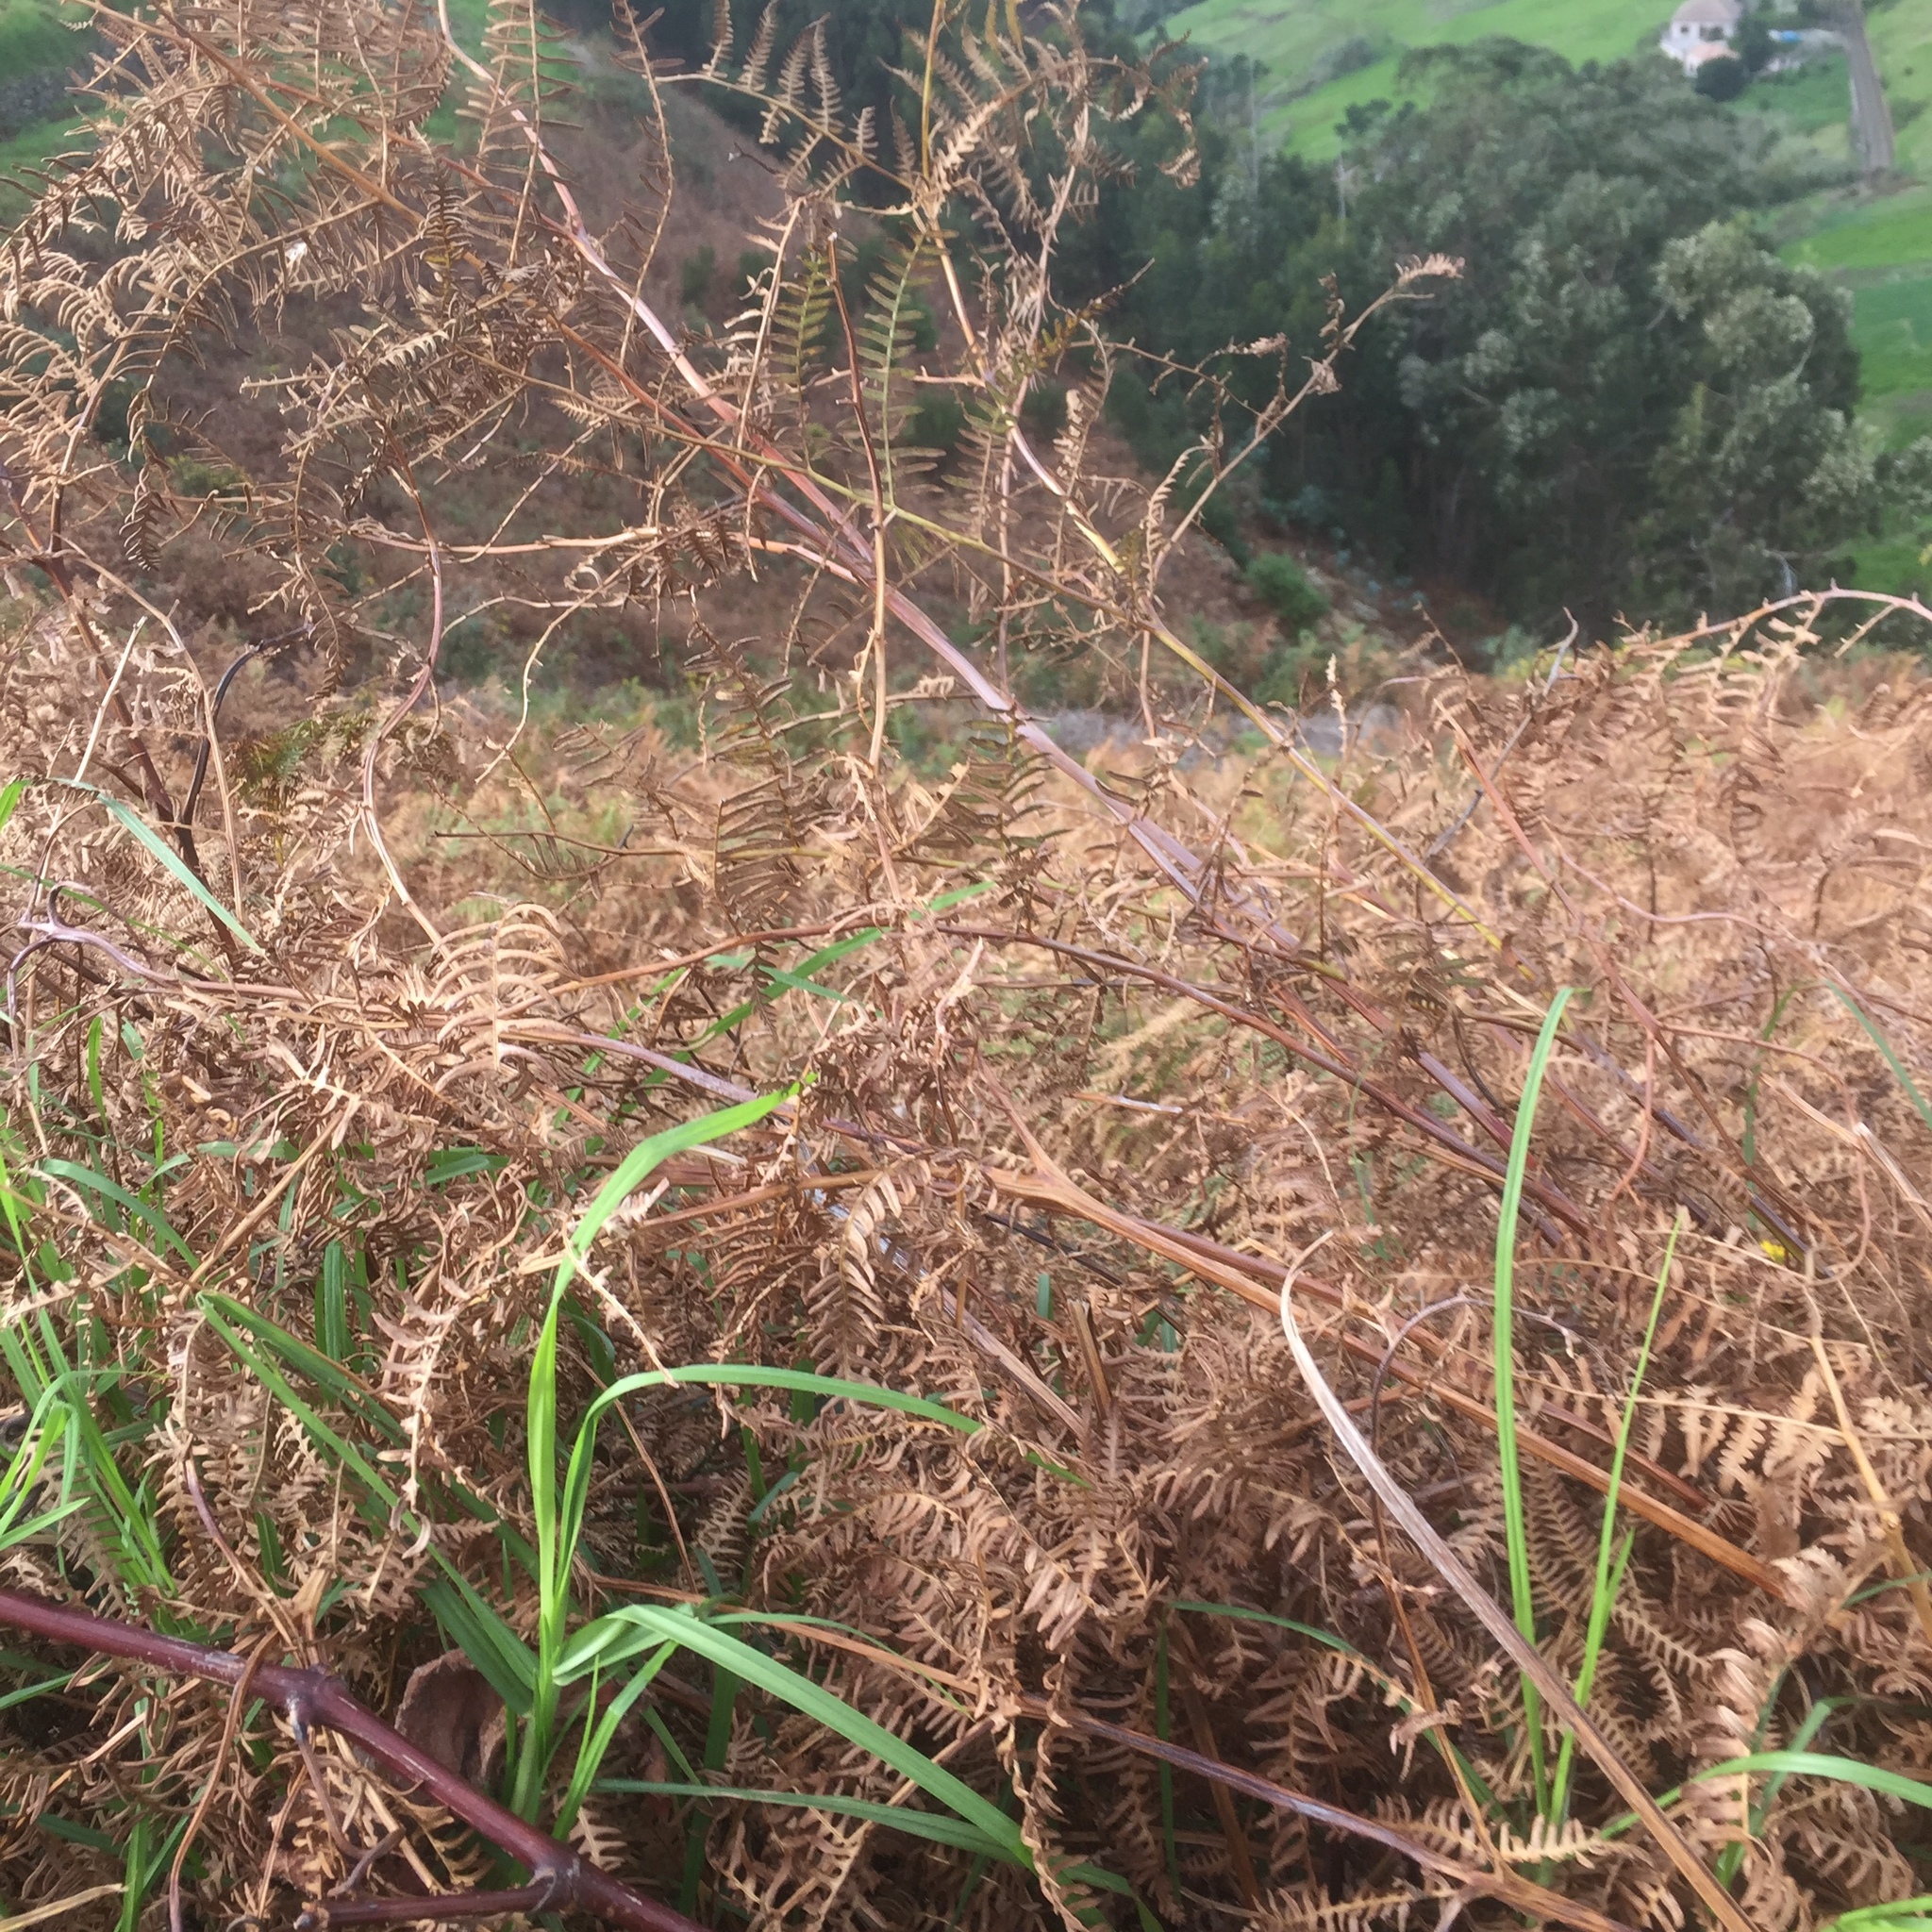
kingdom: Plantae
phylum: Tracheophyta
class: Polypodiopsida
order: Polypodiales
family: Dennstaedtiaceae
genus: Pteridium
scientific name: Pteridium aquilinum
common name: Bracken
